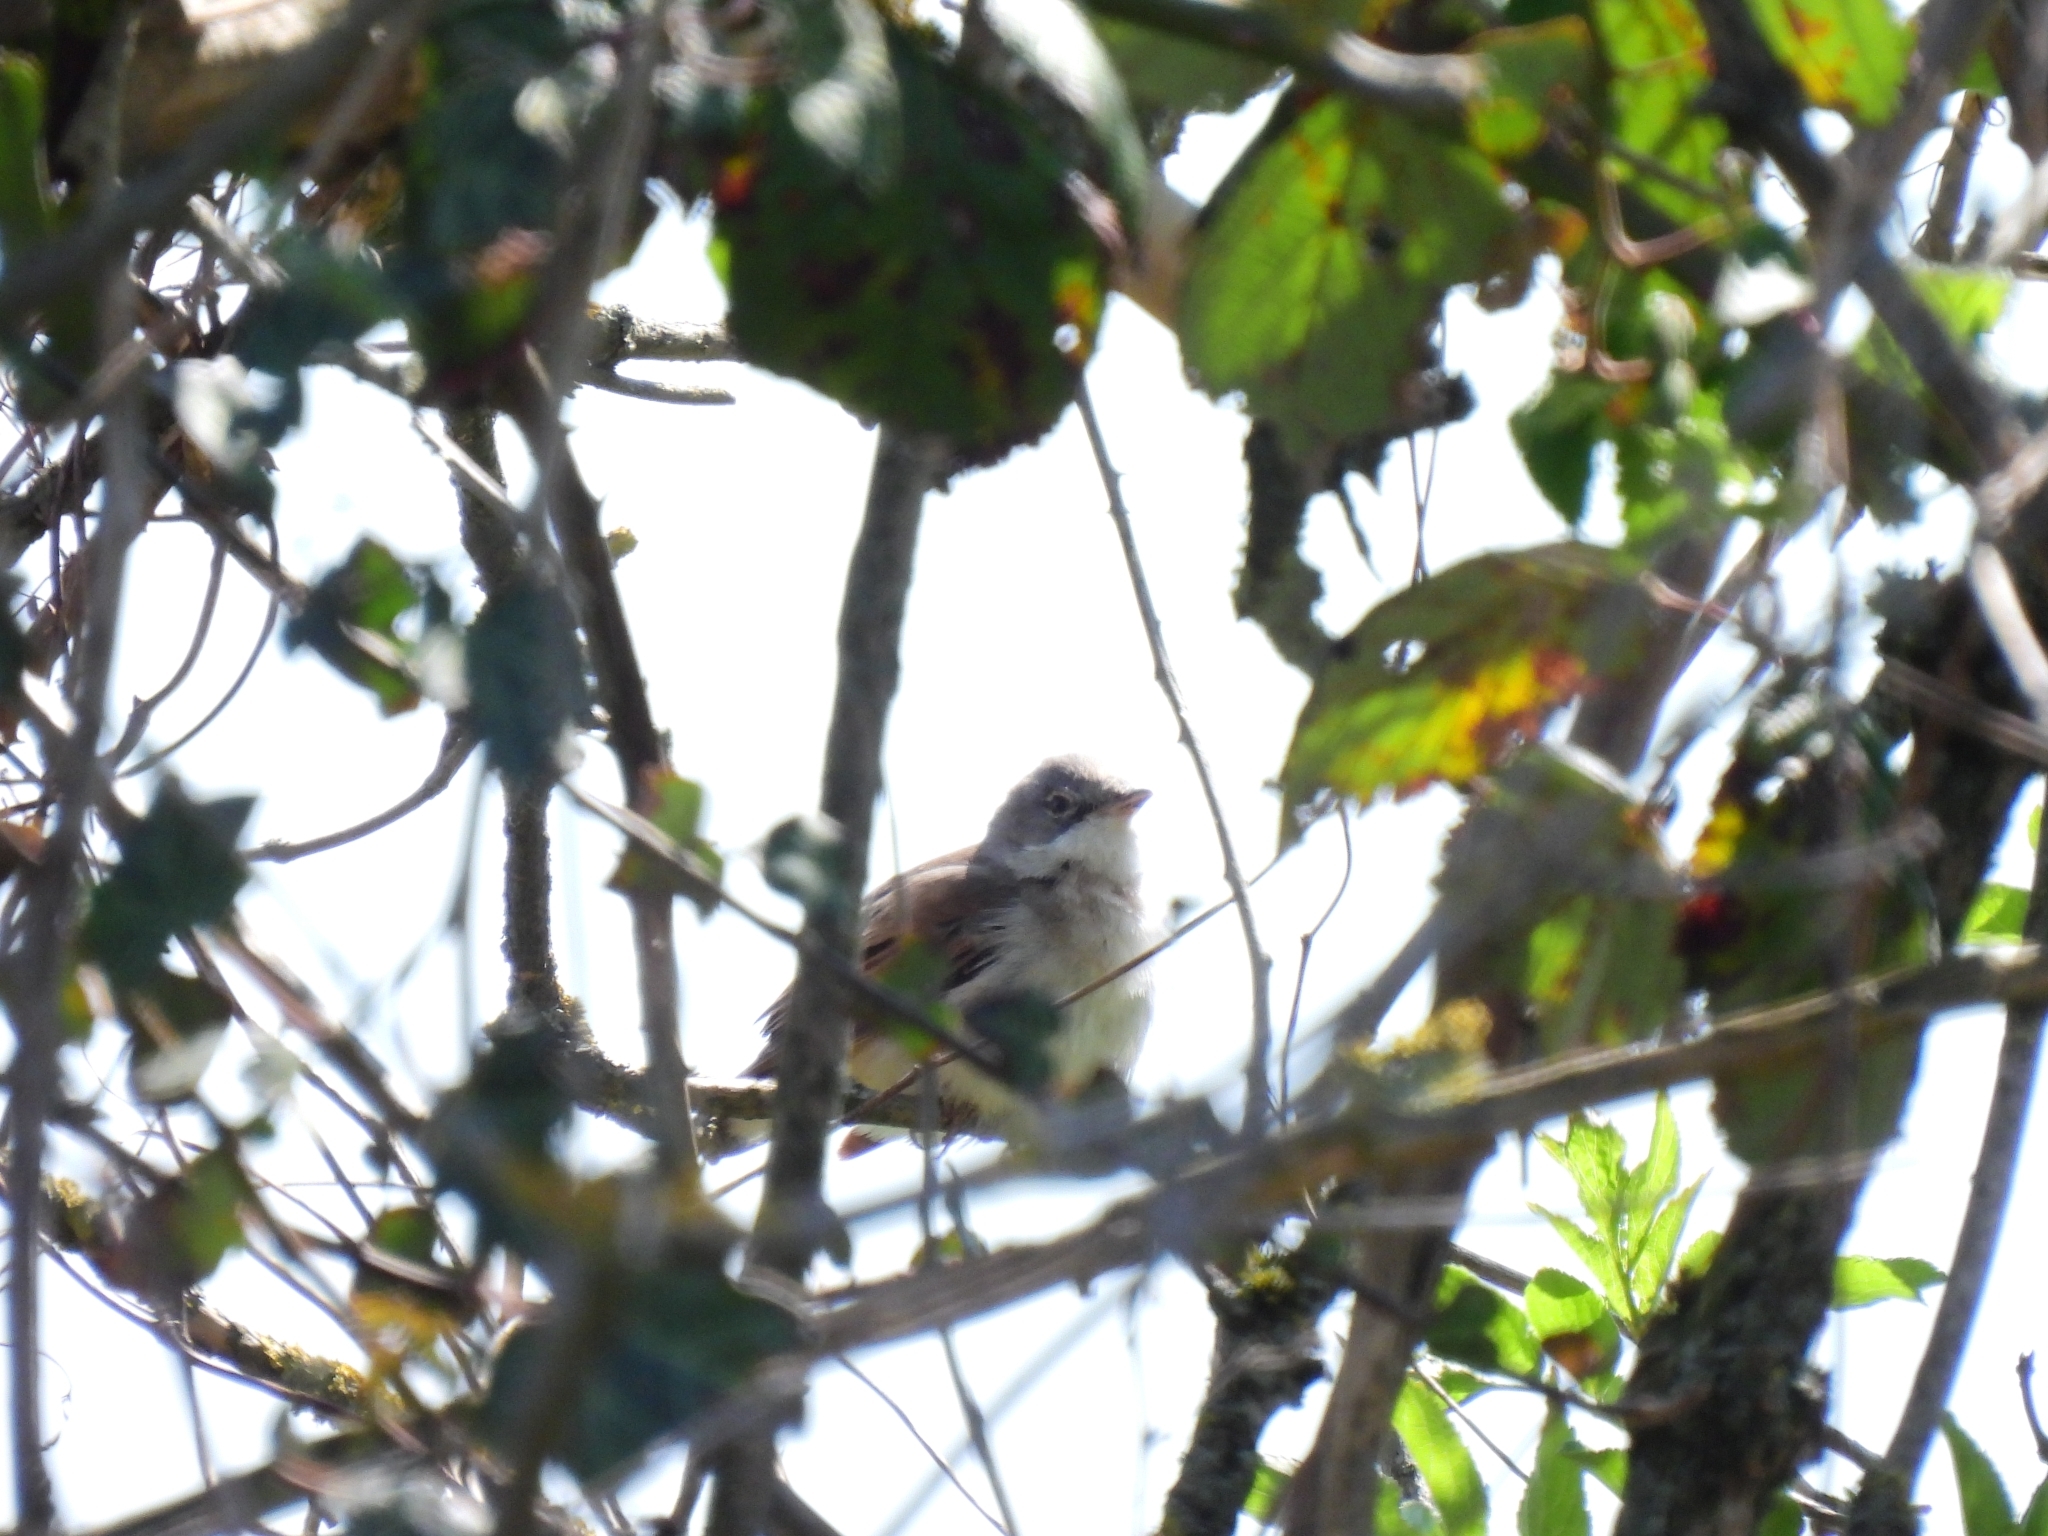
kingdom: Animalia
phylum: Chordata
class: Aves
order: Passeriformes
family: Sylviidae
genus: Sylvia
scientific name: Sylvia communis
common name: Common whitethroat
